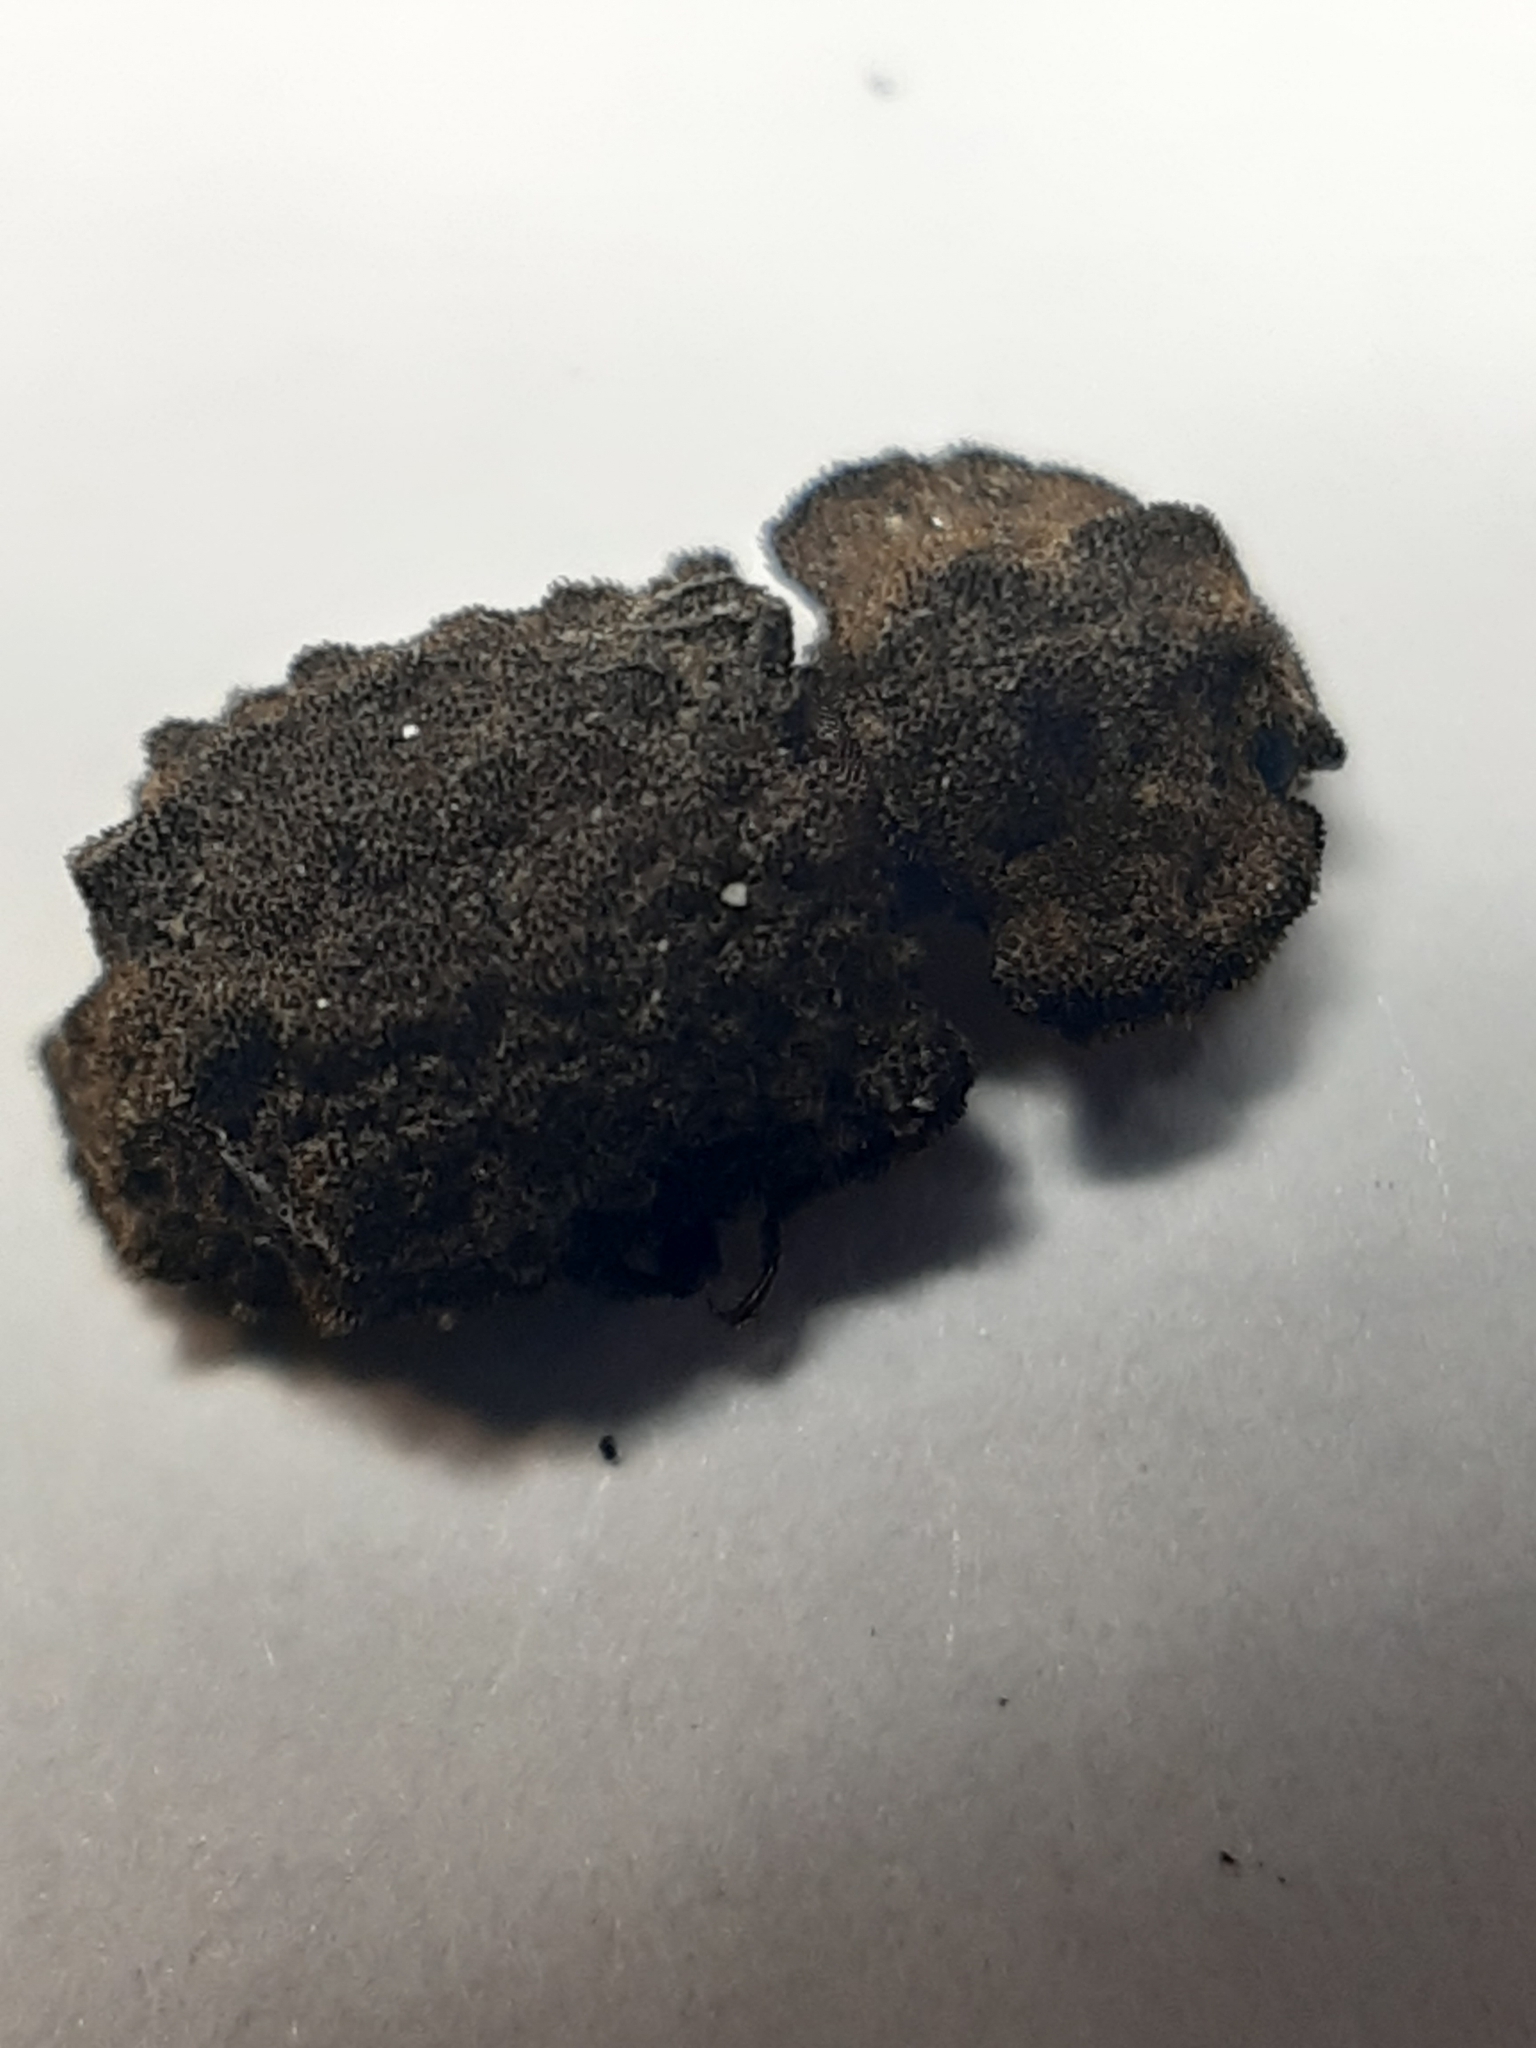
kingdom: Animalia
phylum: Arthropoda
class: Insecta
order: Coleoptera
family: Zopheridae
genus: Pristoderus
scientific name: Pristoderus
